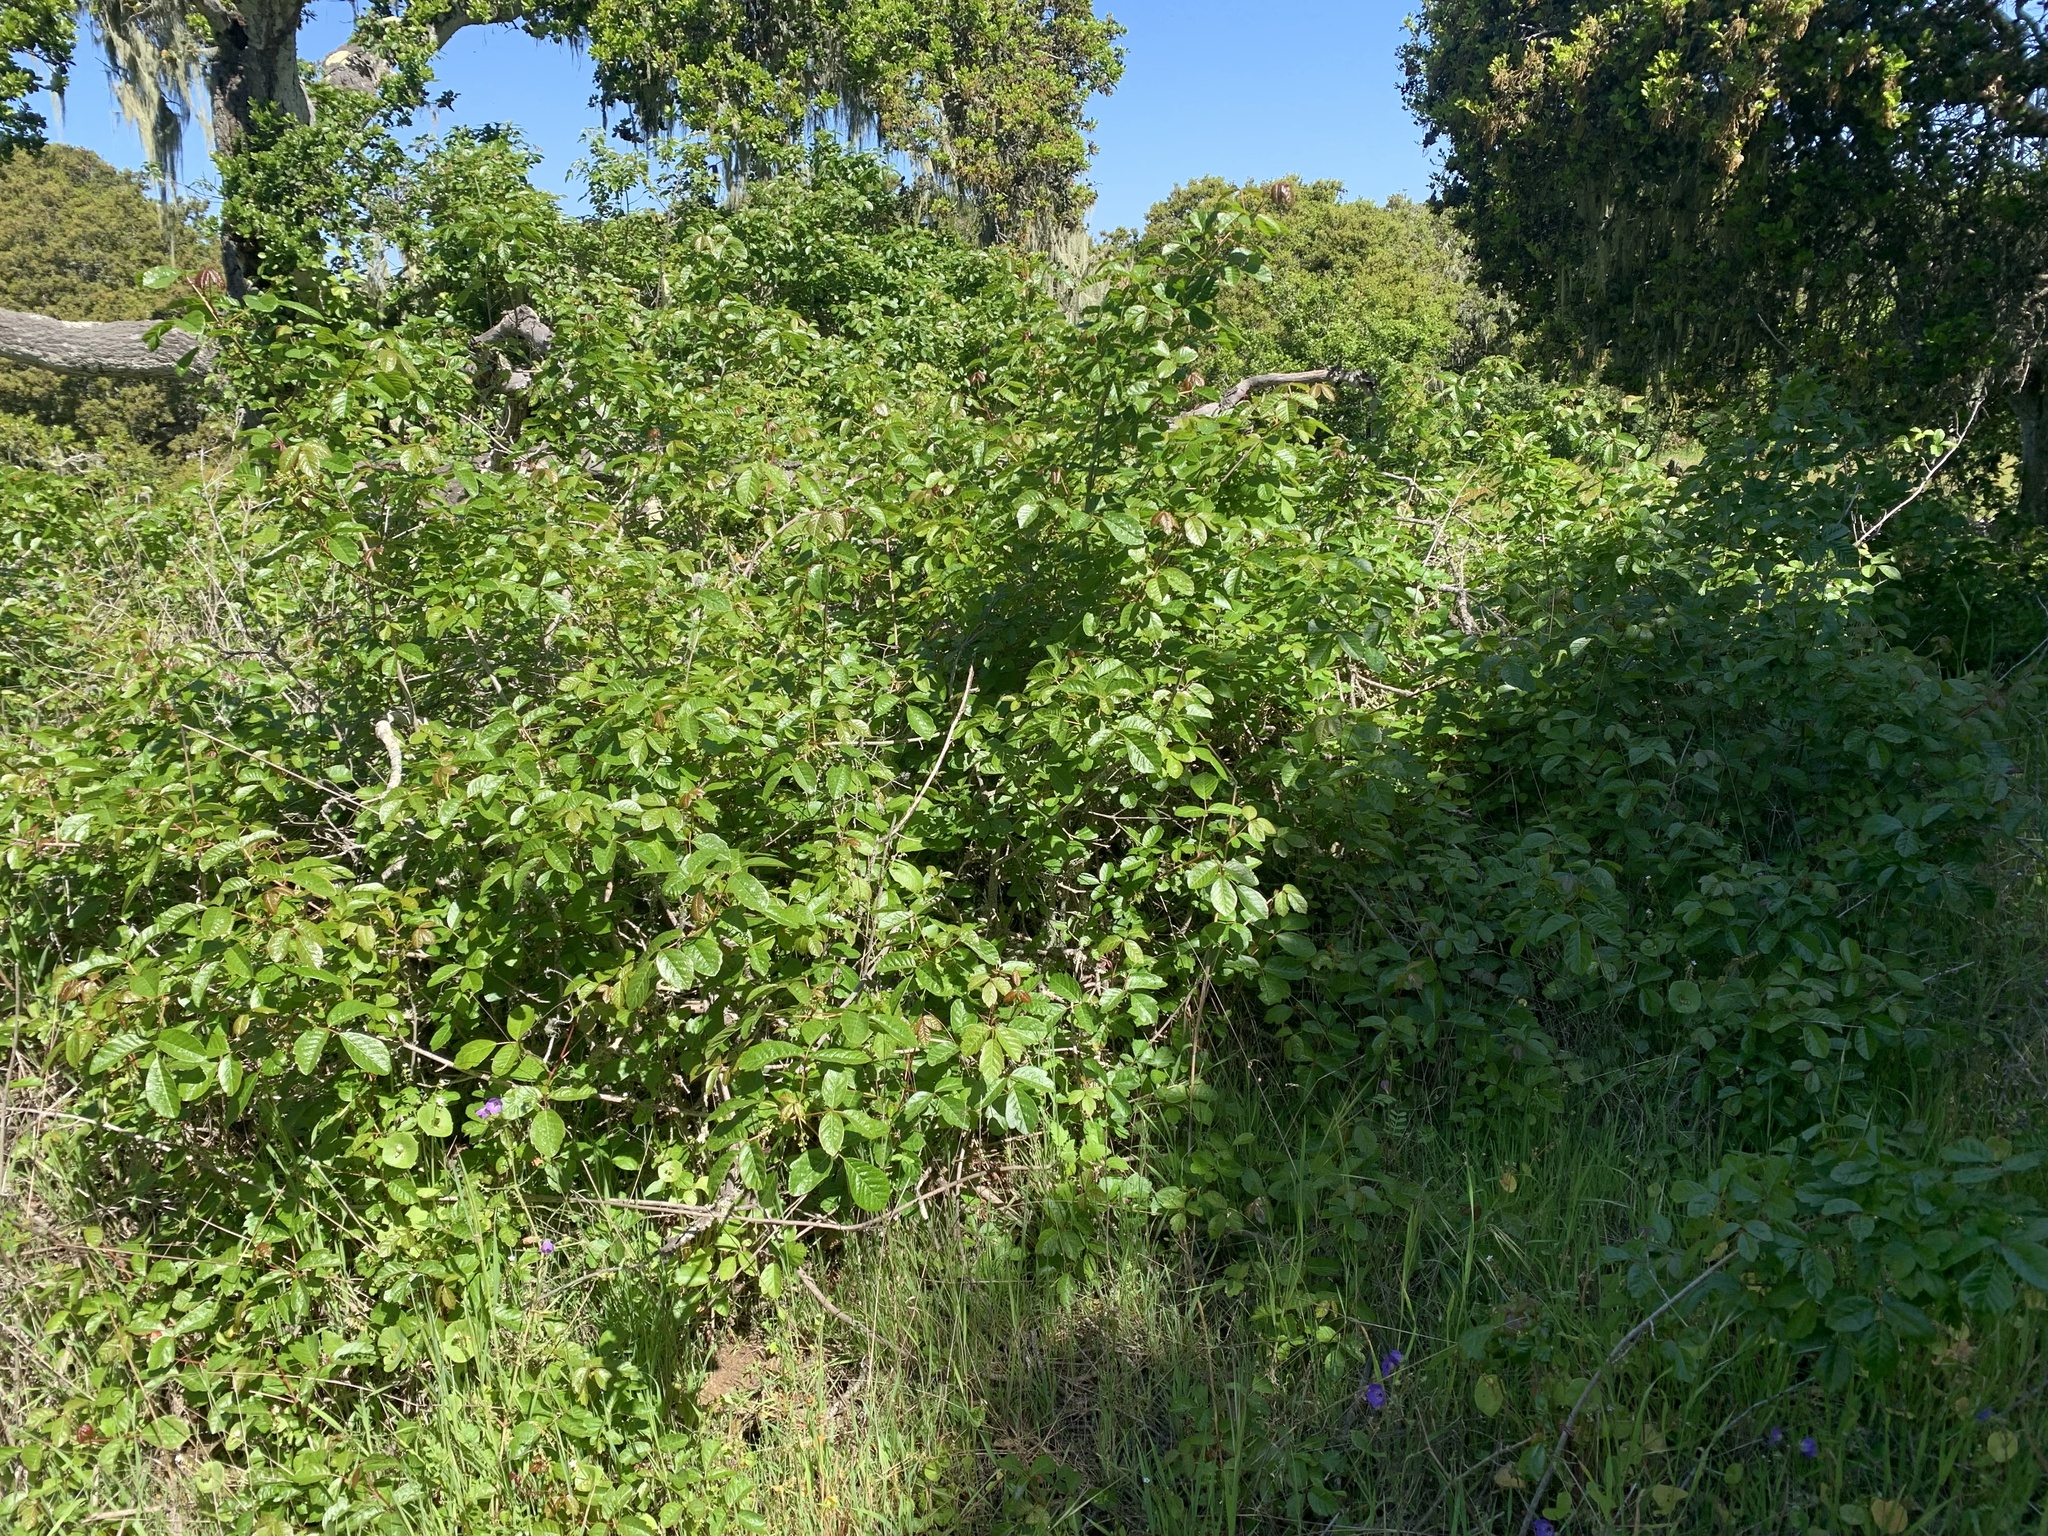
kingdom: Plantae
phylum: Tracheophyta
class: Magnoliopsida
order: Sapindales
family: Anacardiaceae
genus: Toxicodendron
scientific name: Toxicodendron diversilobum
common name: Pacific poison-oak
